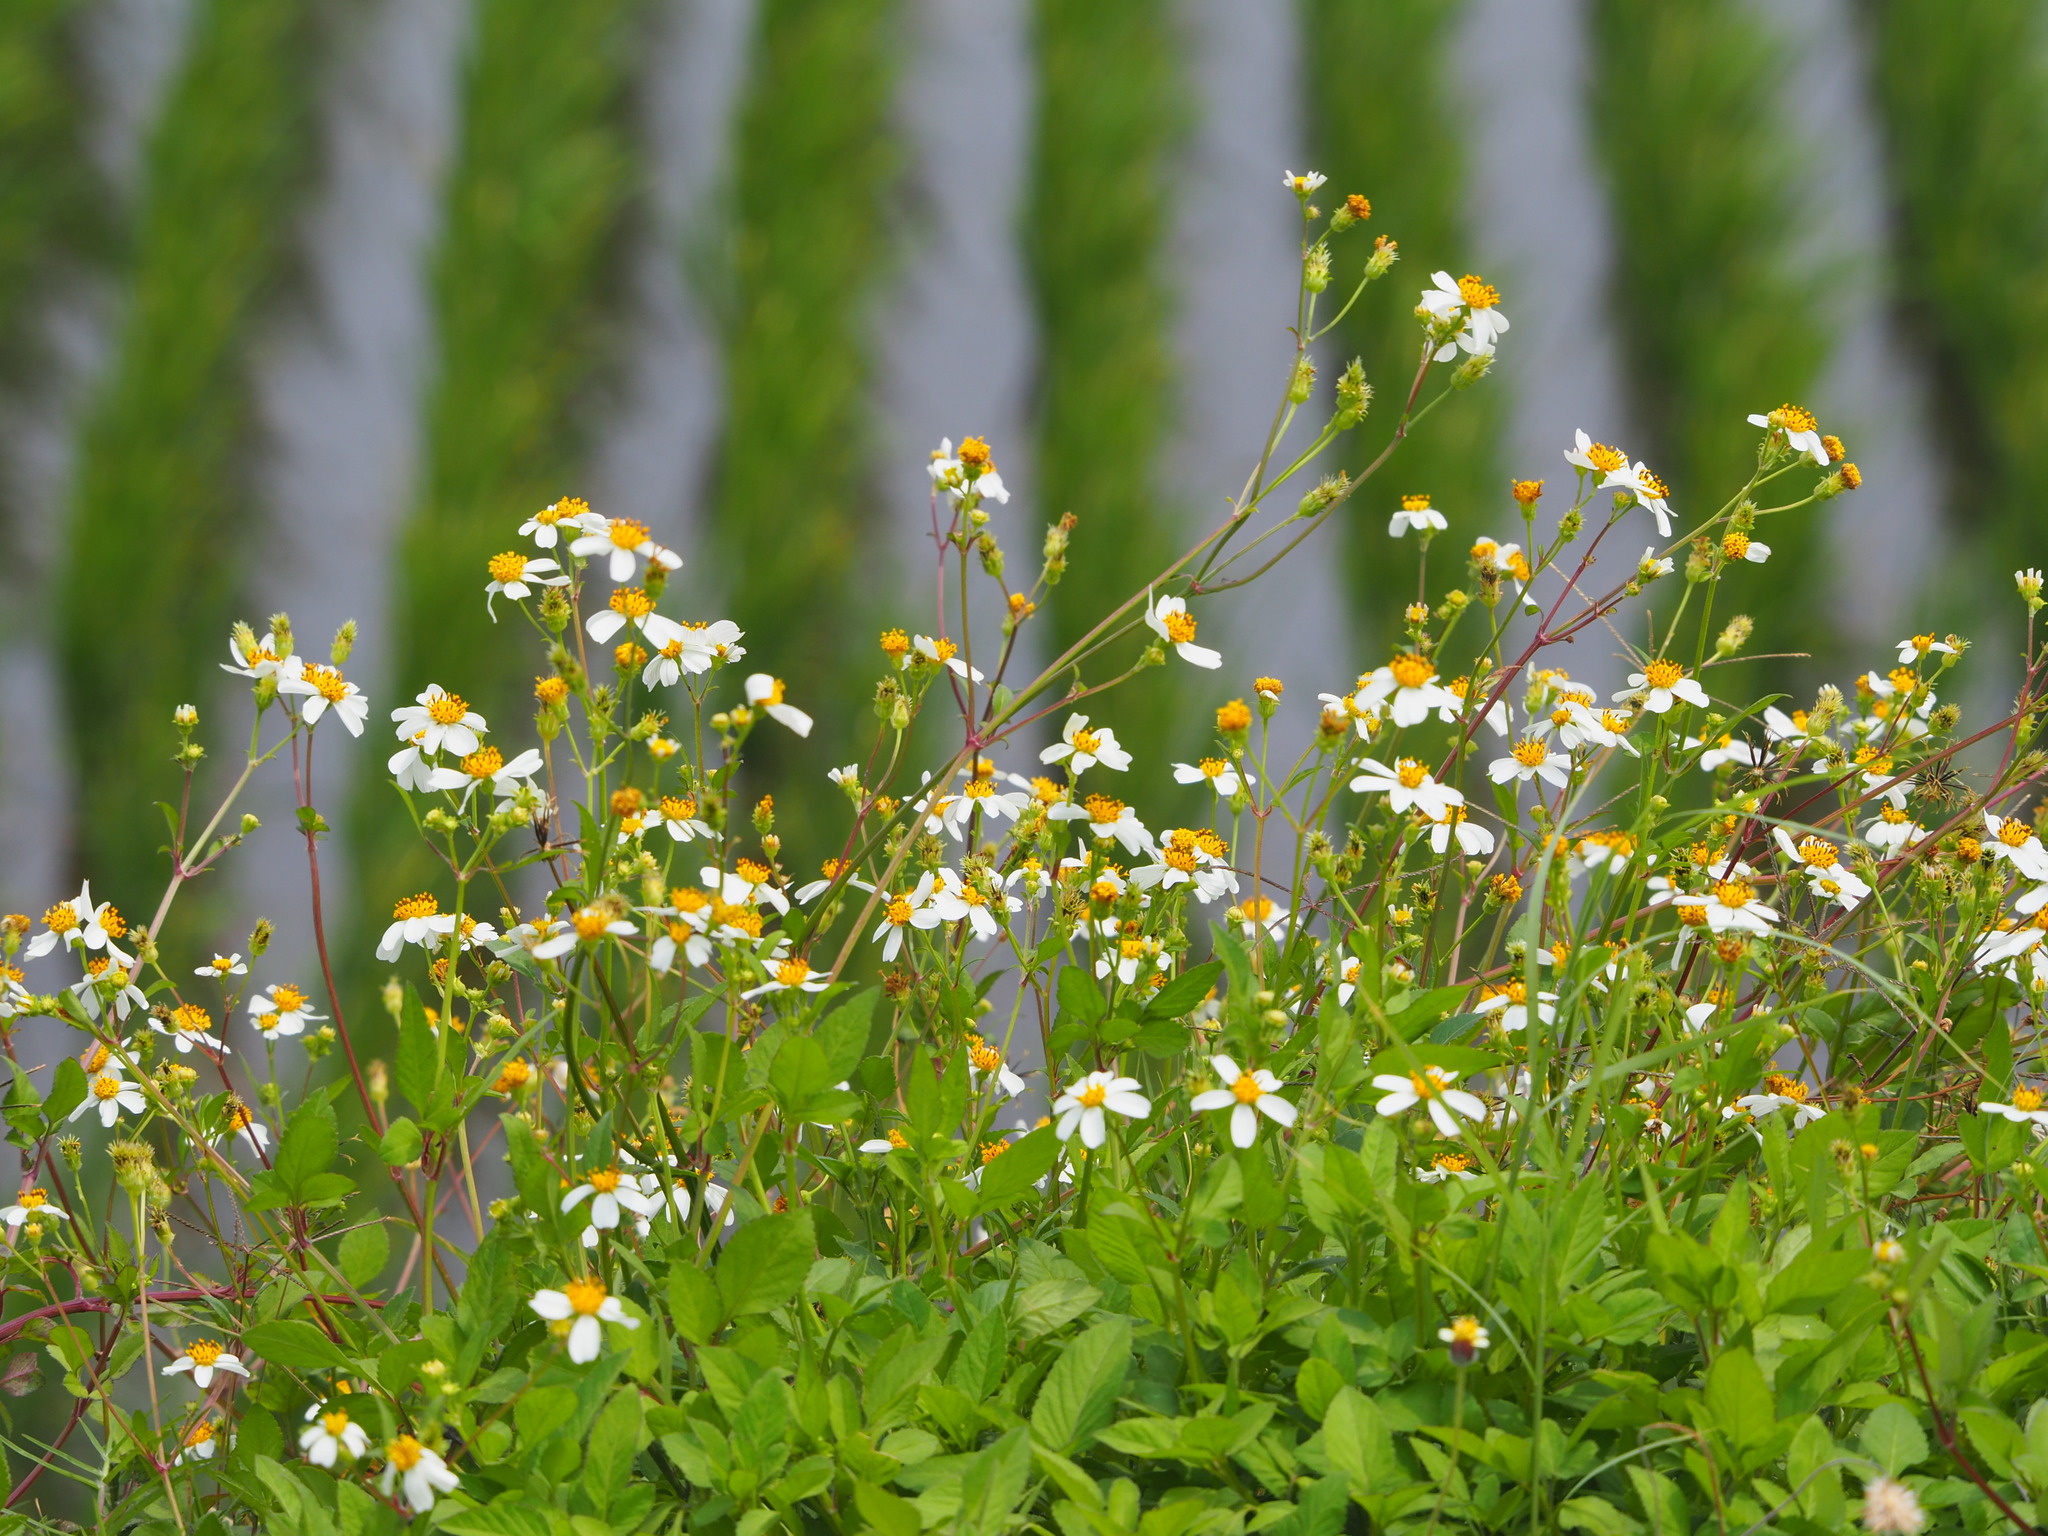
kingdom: Plantae
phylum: Tracheophyta
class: Magnoliopsida
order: Asterales
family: Asteraceae
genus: Bidens
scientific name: Bidens alba
